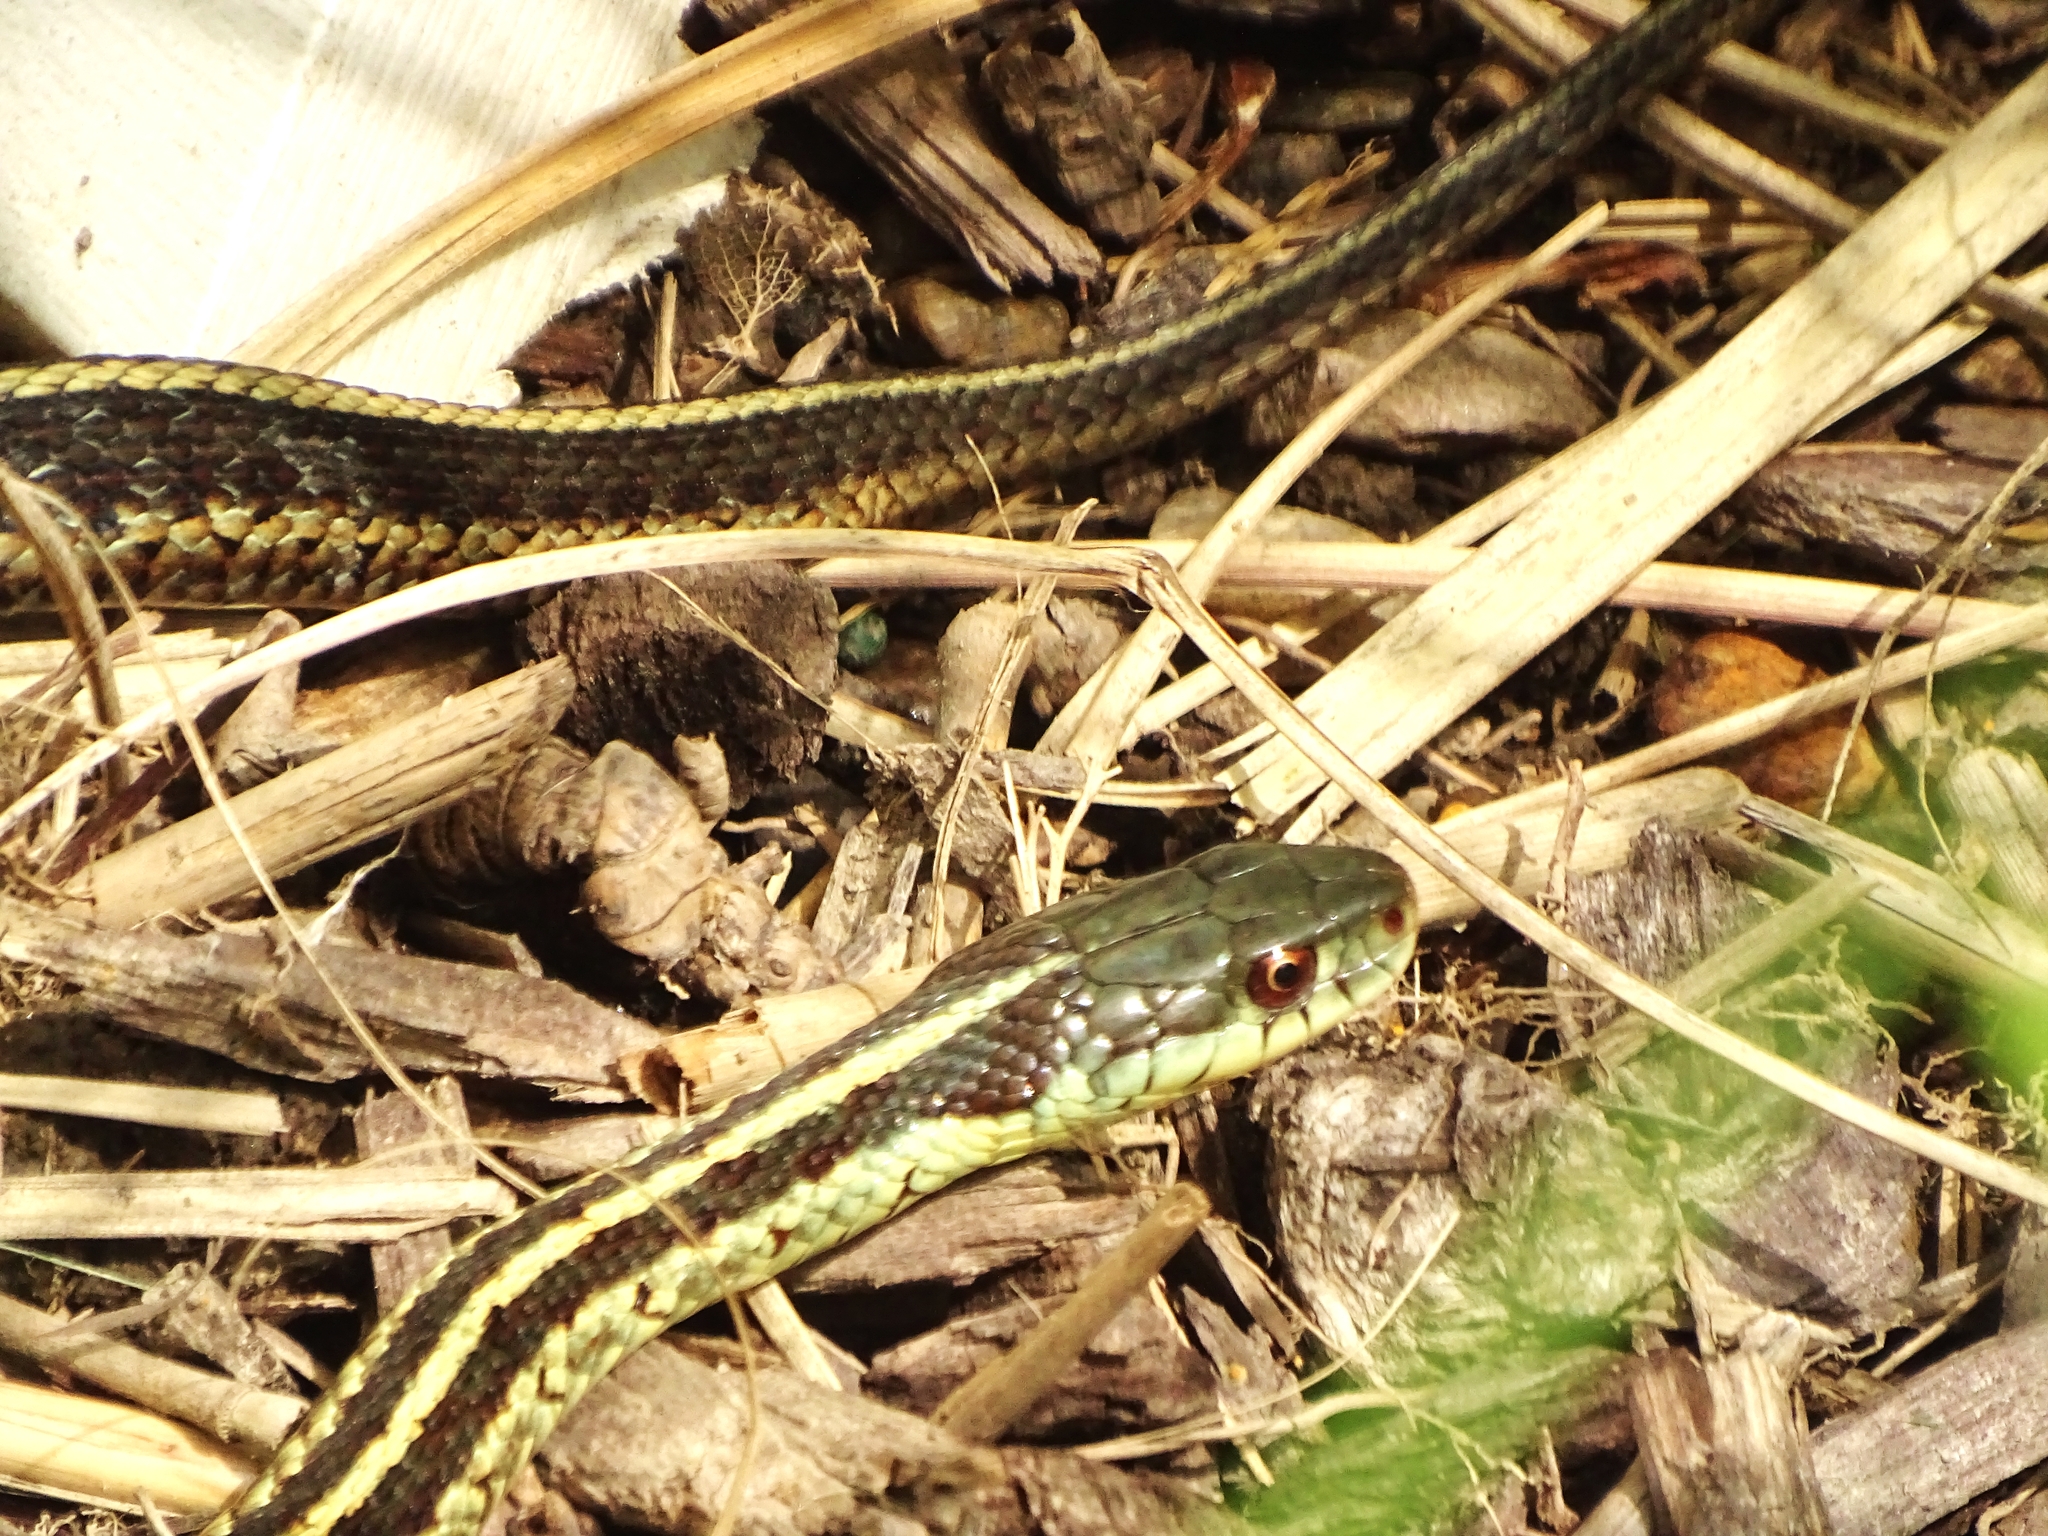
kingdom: Animalia
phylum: Chordata
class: Squamata
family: Colubridae
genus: Thamnophis
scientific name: Thamnophis sirtalis
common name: Common garter snake
